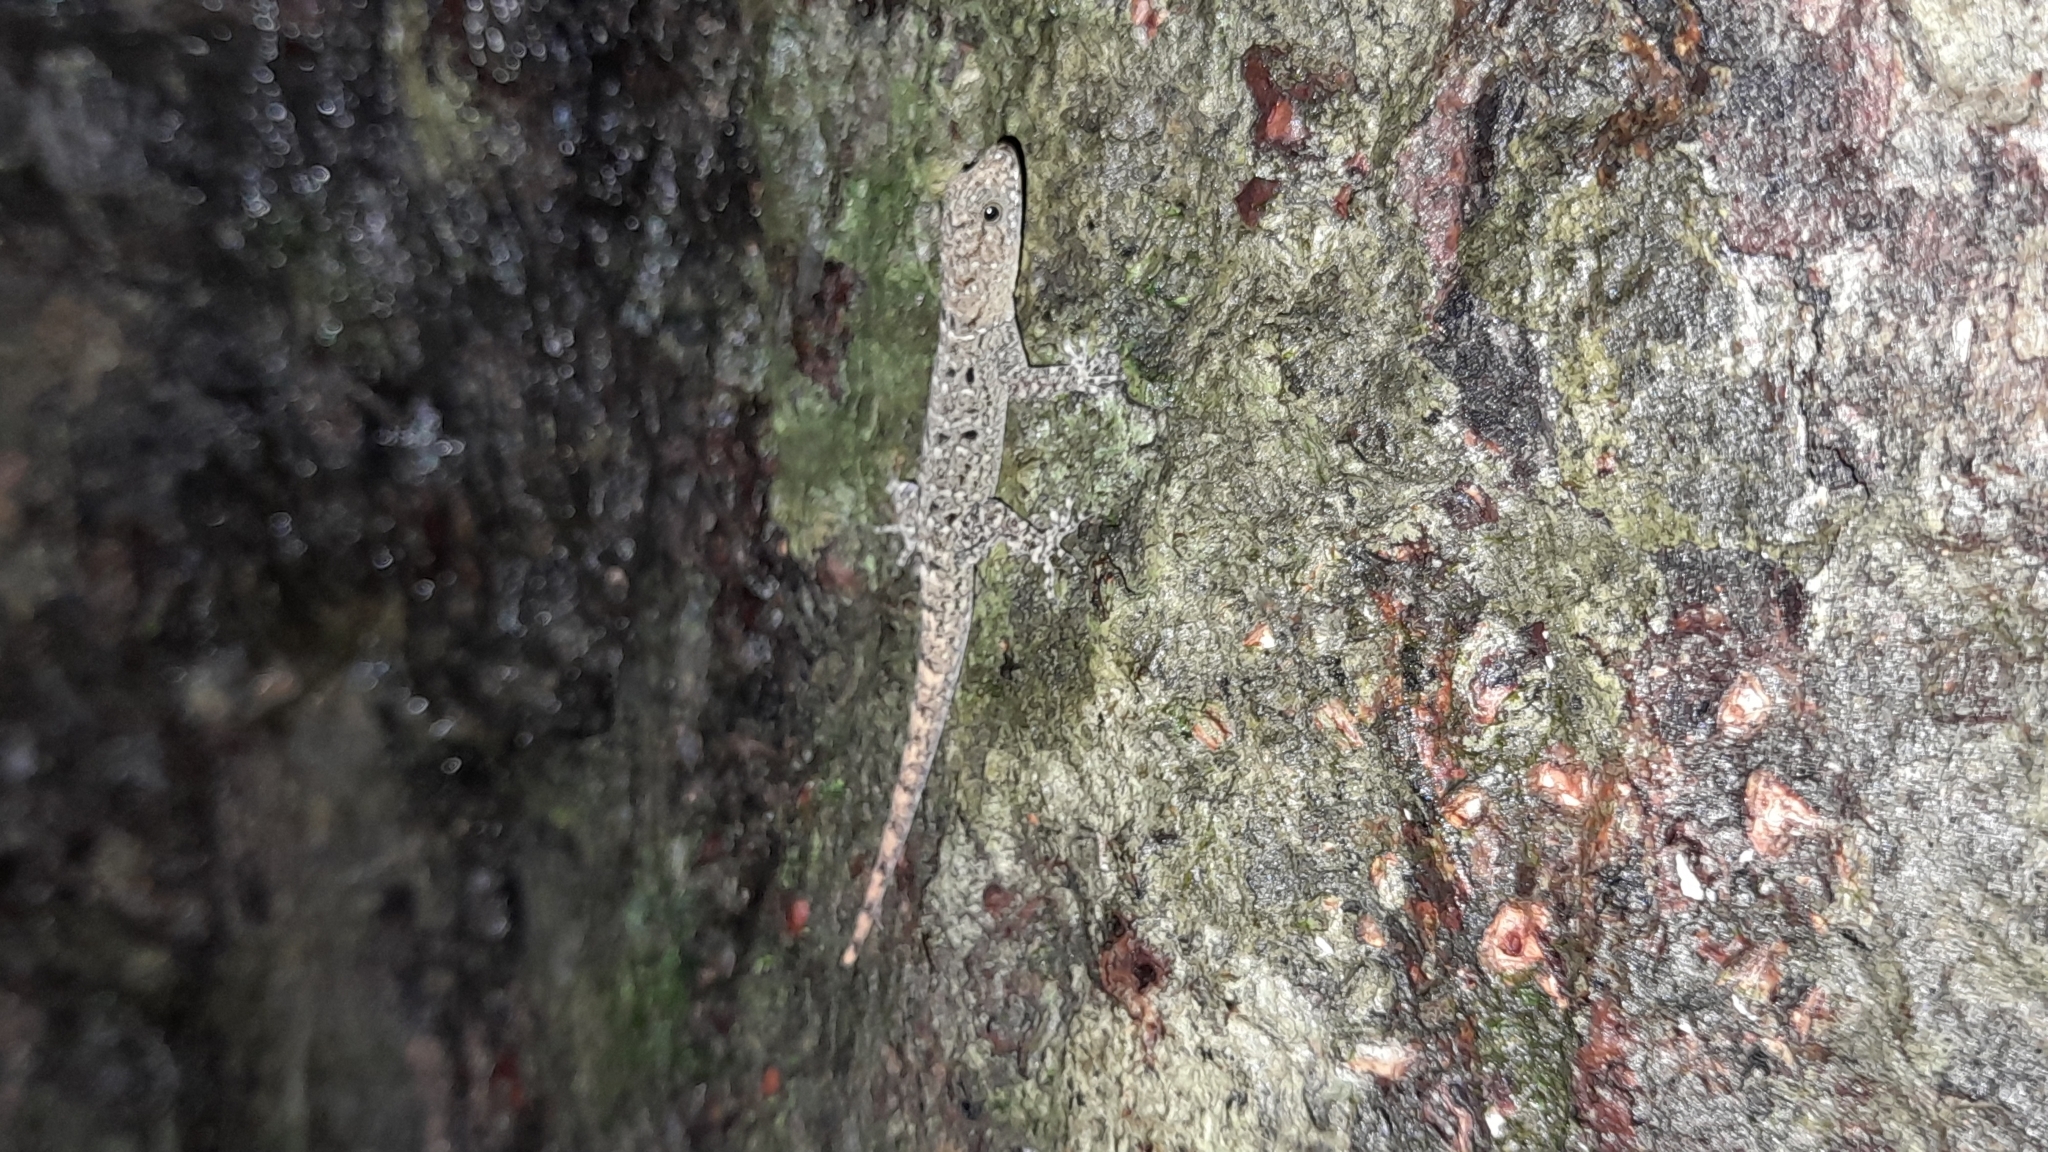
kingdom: Animalia
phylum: Chordata
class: Squamata
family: Sphaerodactylidae
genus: Gonatodes
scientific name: Gonatodes albogularis
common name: Yellow-headed gecko
